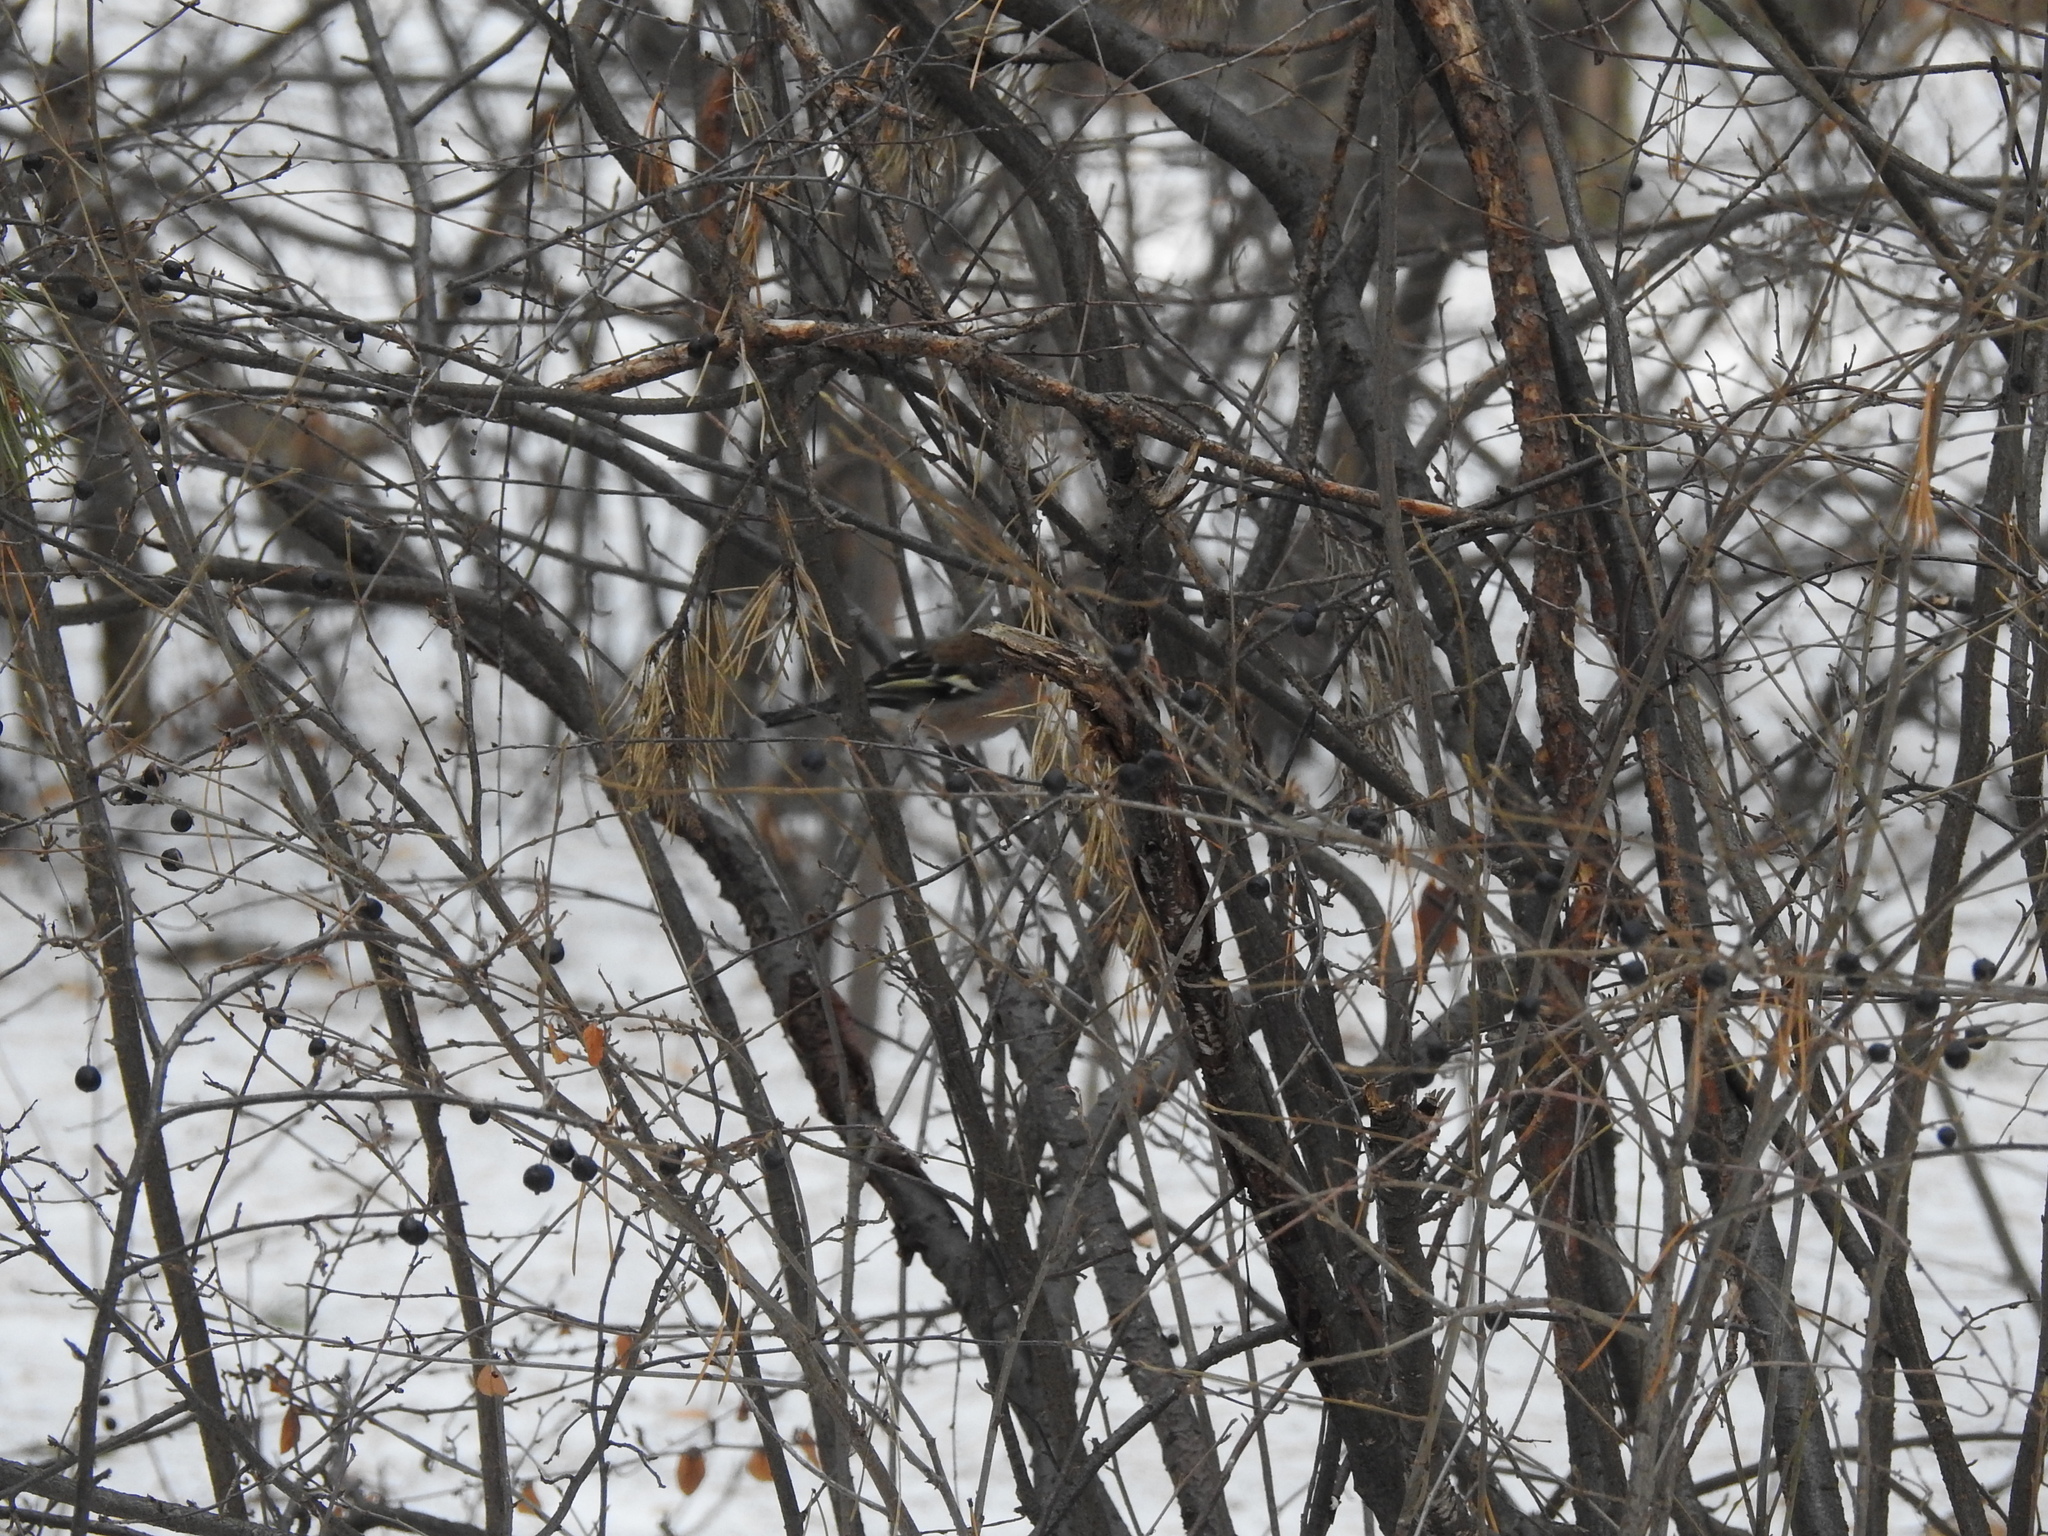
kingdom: Animalia
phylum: Chordata
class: Aves
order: Passeriformes
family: Fringillidae
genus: Fringilla
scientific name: Fringilla coelebs
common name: Common chaffinch
